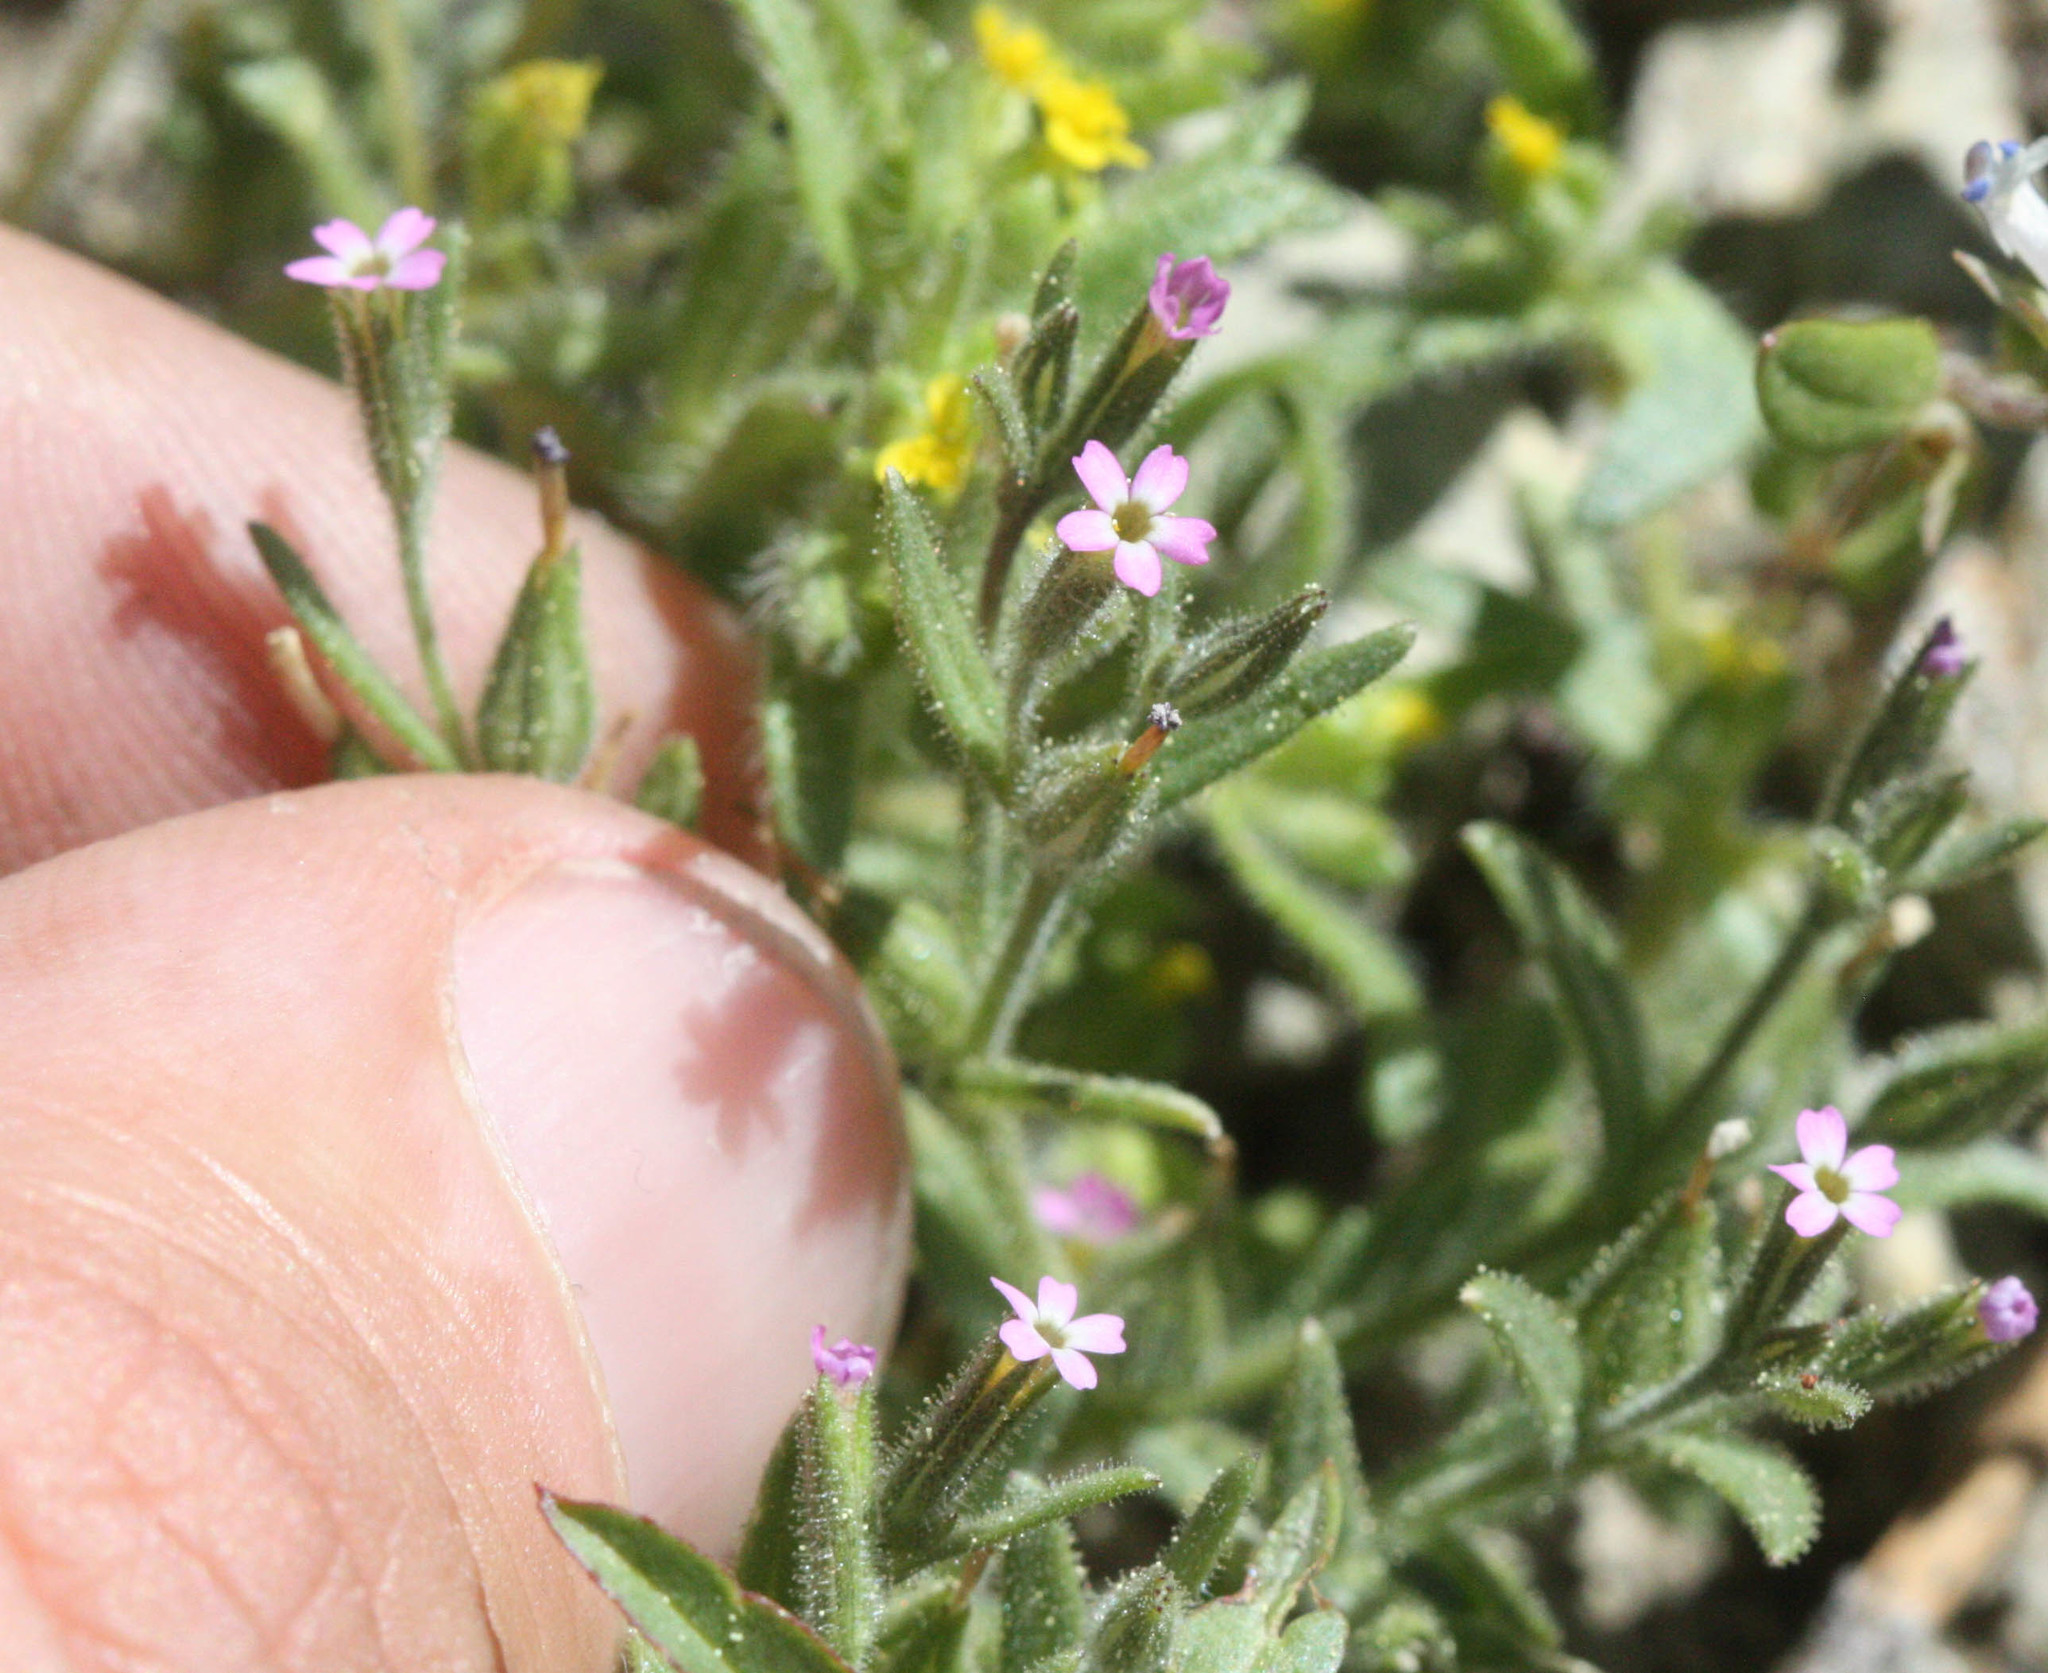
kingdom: Plantae
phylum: Tracheophyta
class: Magnoliopsida
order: Ericales
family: Polemoniaceae
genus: Phlox
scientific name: Phlox gracilis
